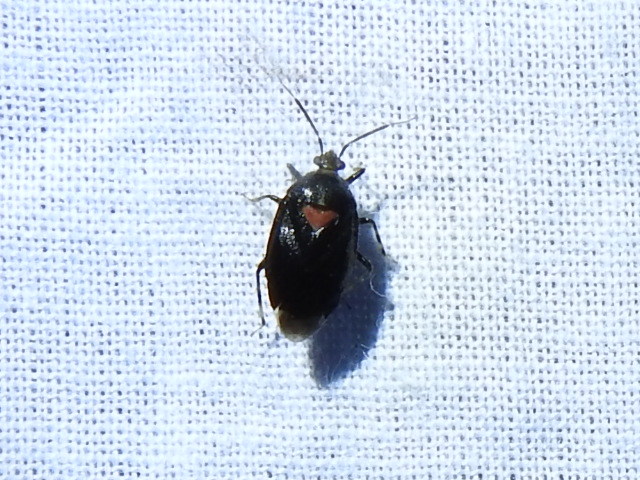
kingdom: Animalia
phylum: Arthropoda
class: Insecta
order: Hemiptera
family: Miridae
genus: Deraeocoris
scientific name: Deraeocoris sayi
